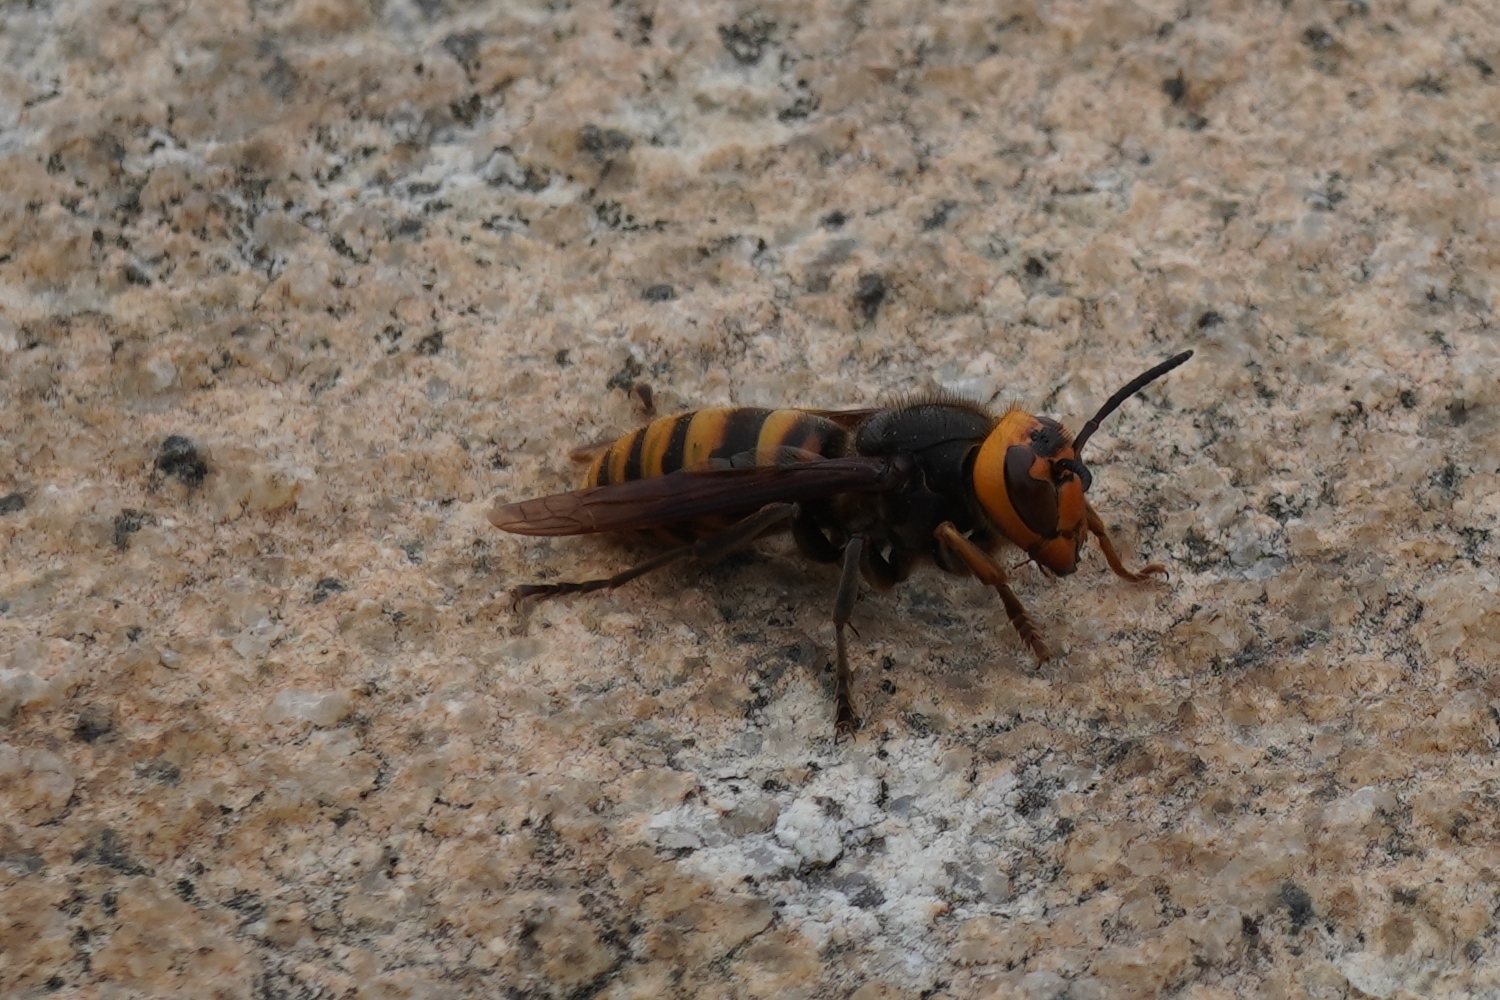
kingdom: Animalia
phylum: Arthropoda
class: Insecta
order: Hymenoptera
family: Vespidae
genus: Vespa
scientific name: Vespa analis
